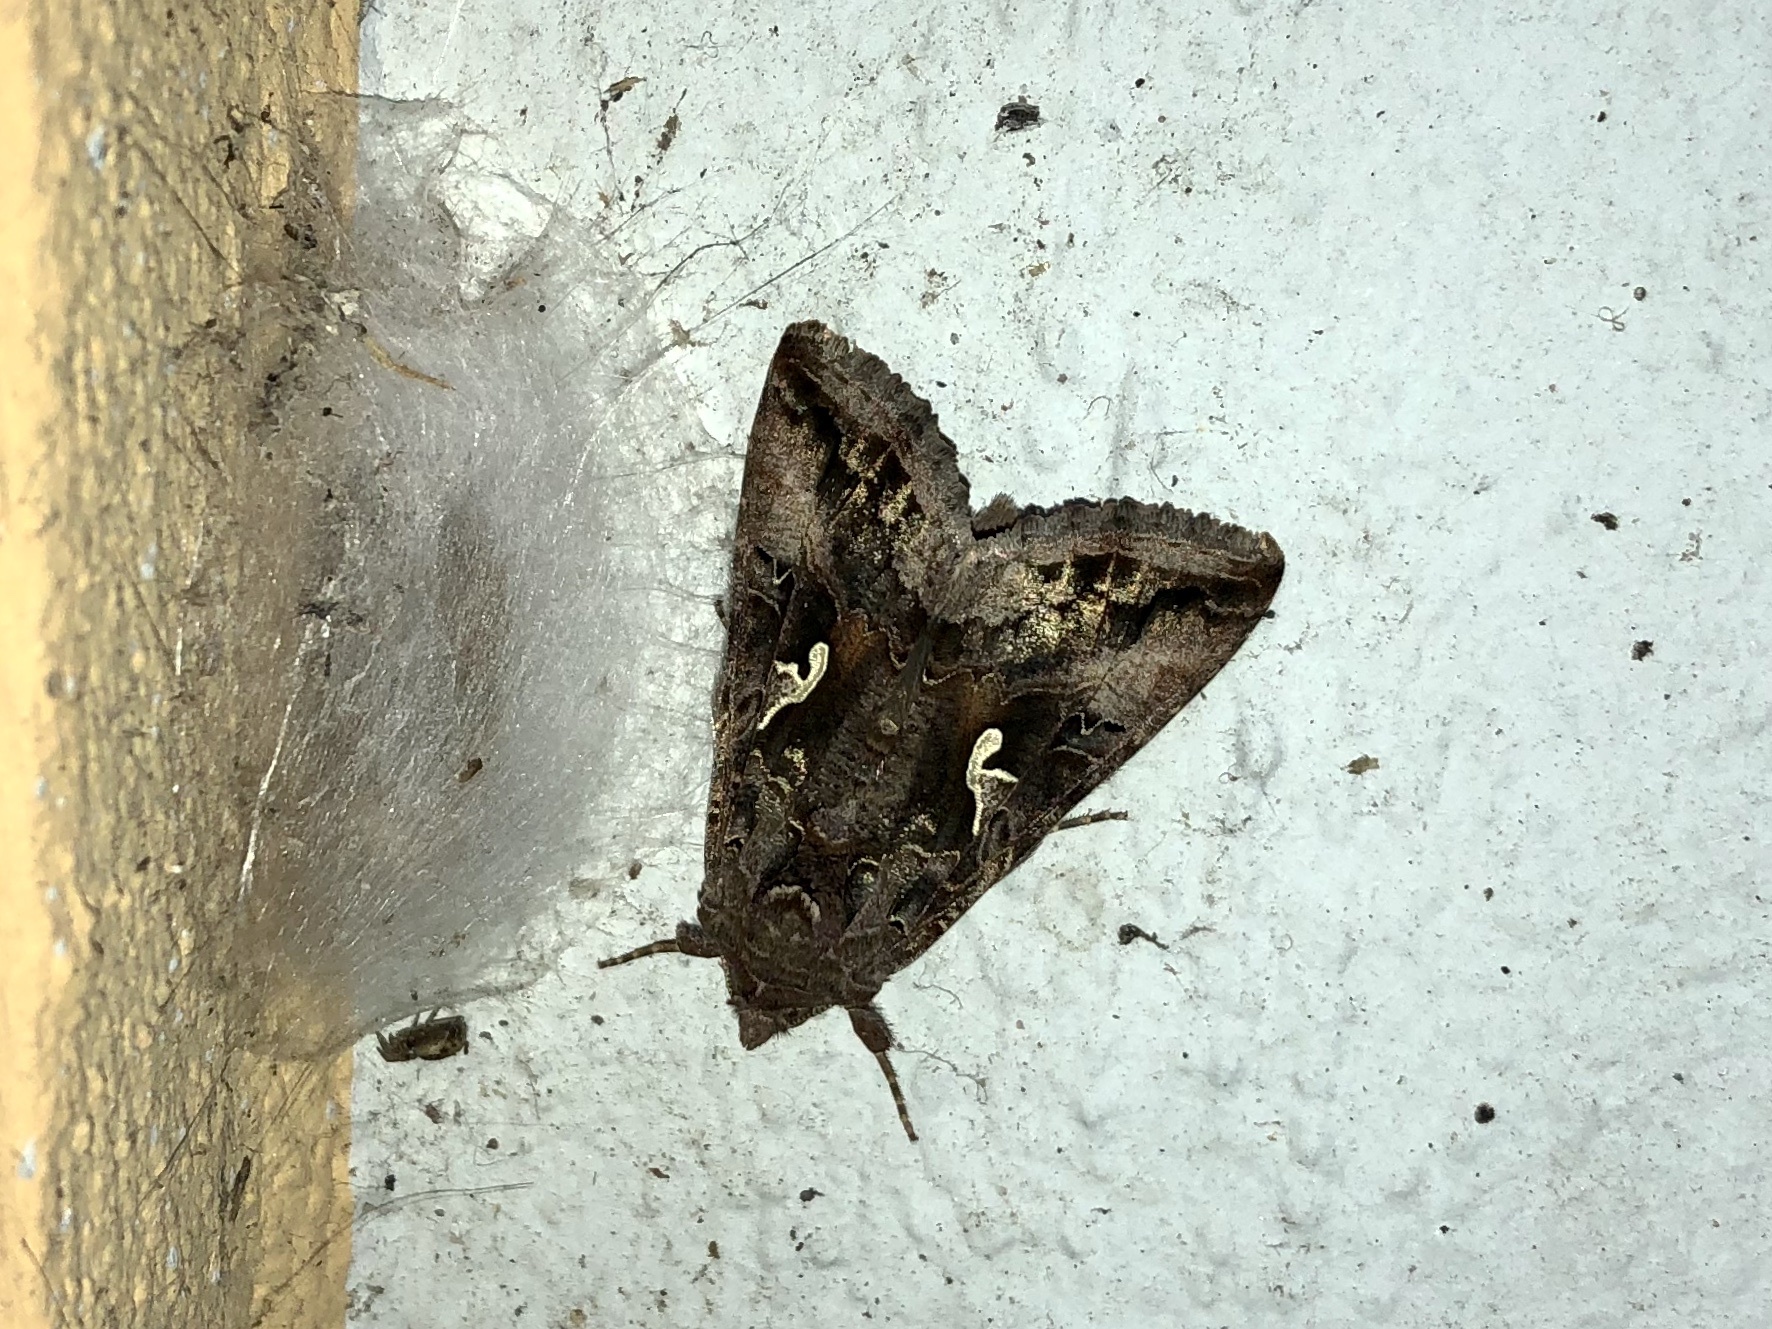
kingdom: Animalia
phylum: Arthropoda
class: Insecta
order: Lepidoptera
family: Noctuidae
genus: Autographa
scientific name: Autographa gamma
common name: Silver y
